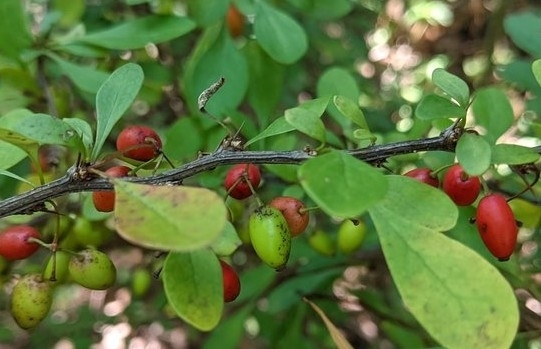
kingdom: Plantae
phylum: Tracheophyta
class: Magnoliopsida
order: Ranunculales
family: Berberidaceae
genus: Berberis
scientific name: Berberis thunbergii
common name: Japanese barberry
